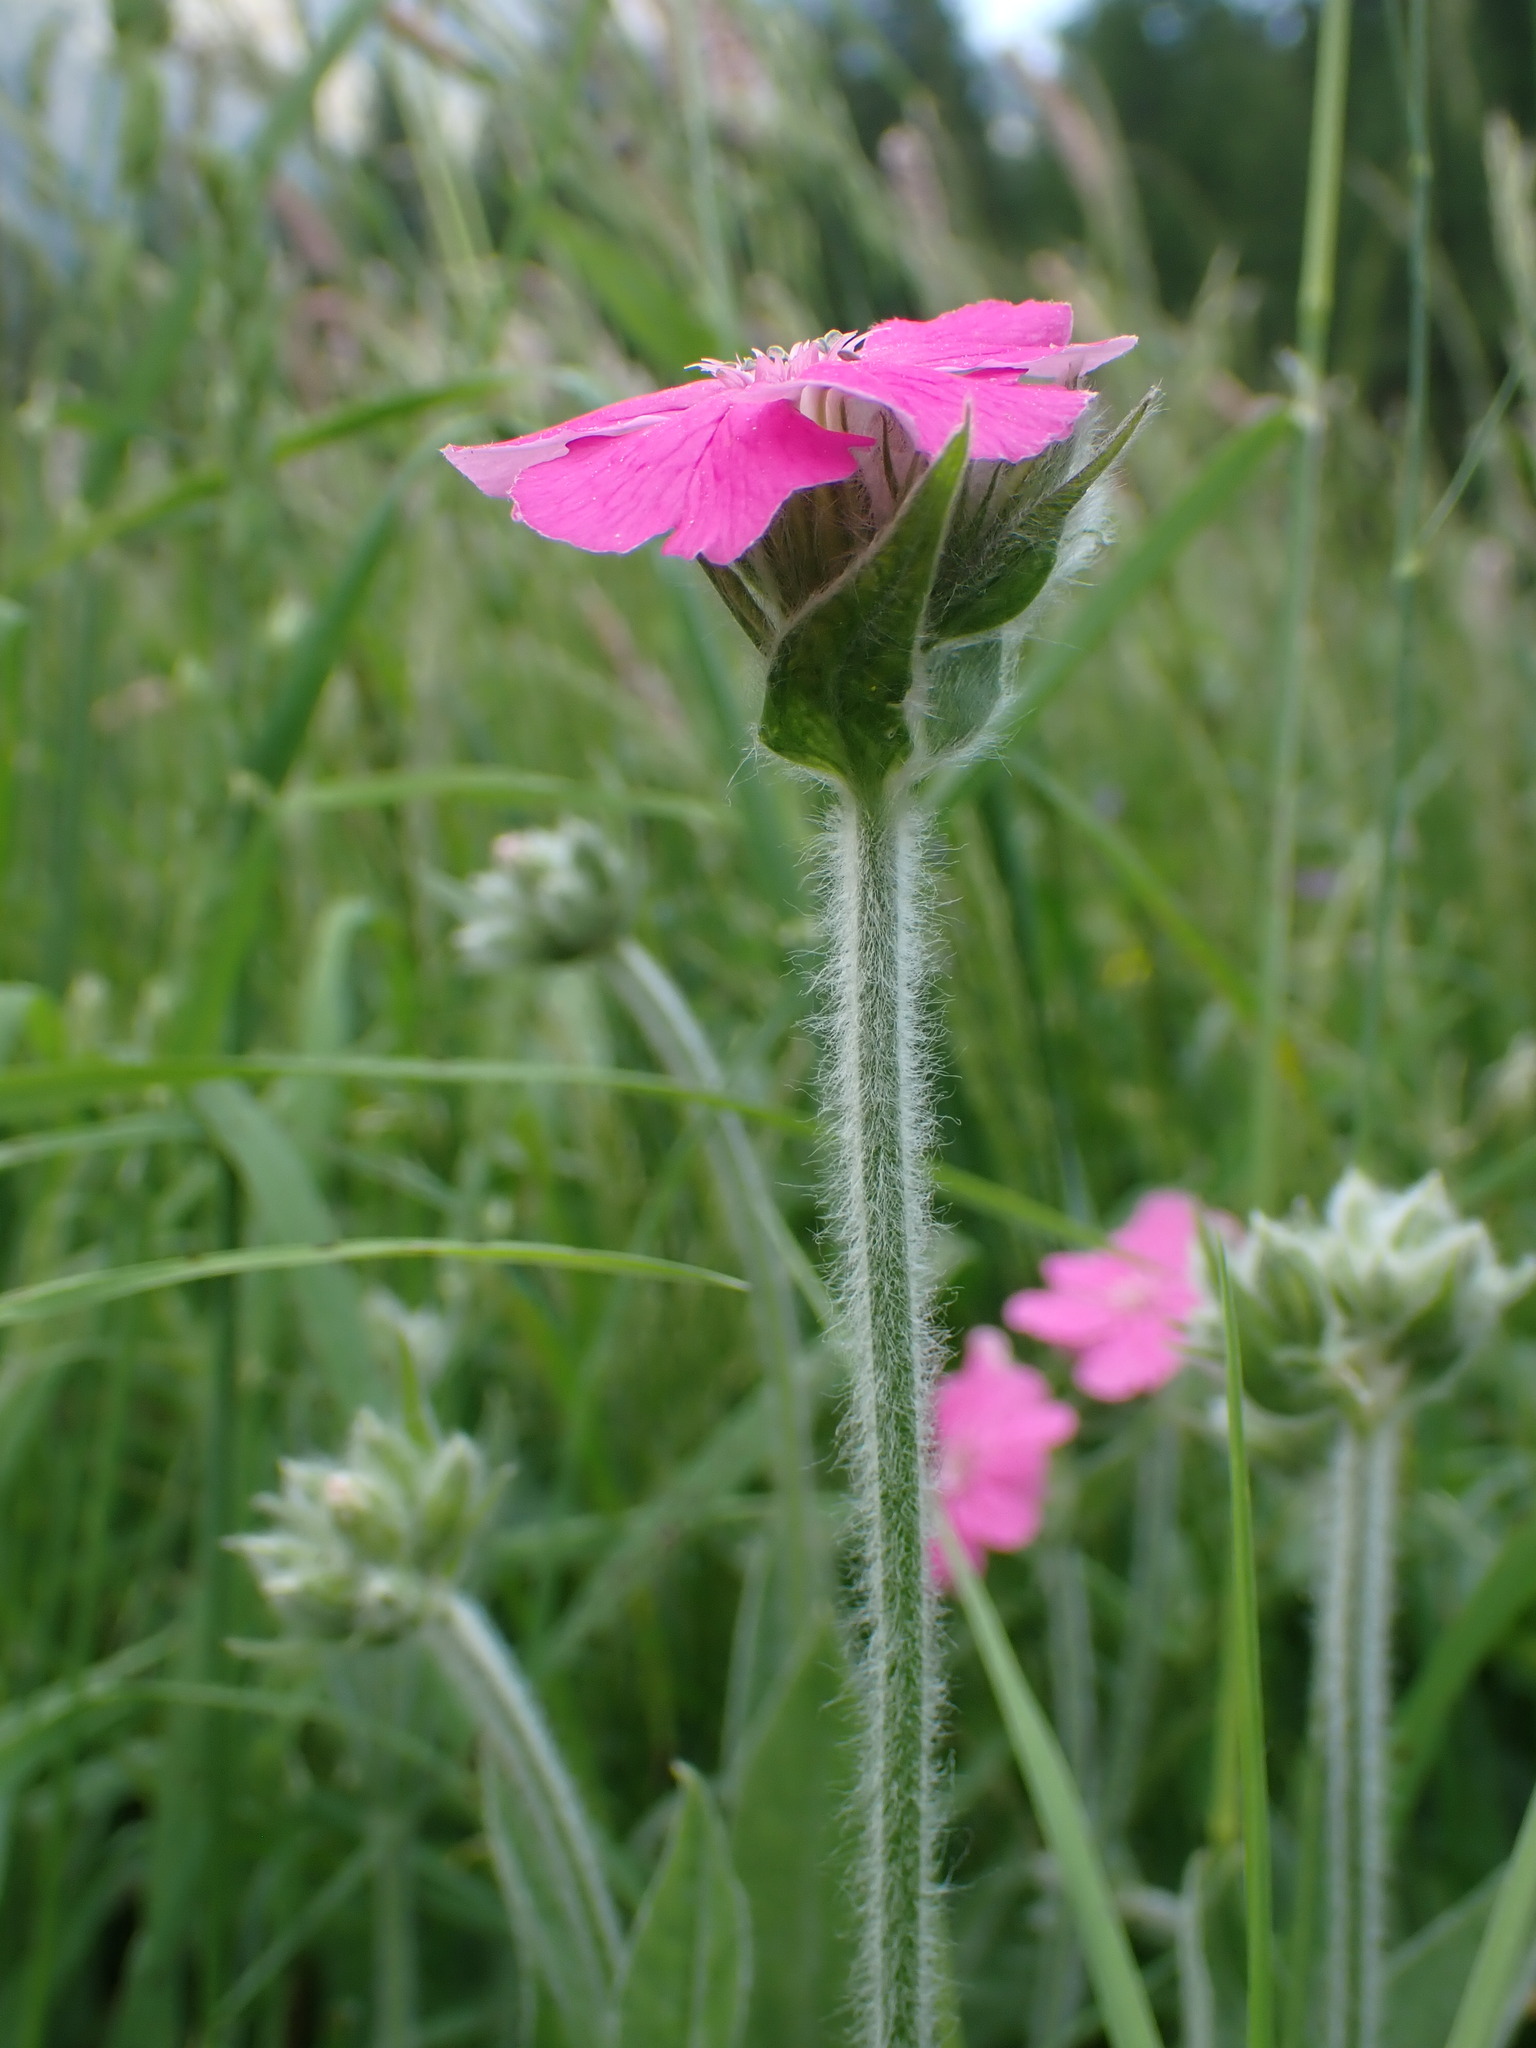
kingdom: Plantae
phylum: Tracheophyta
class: Magnoliopsida
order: Caryophyllales
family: Caryophyllaceae
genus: Silene
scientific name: Silene flos-jovis
